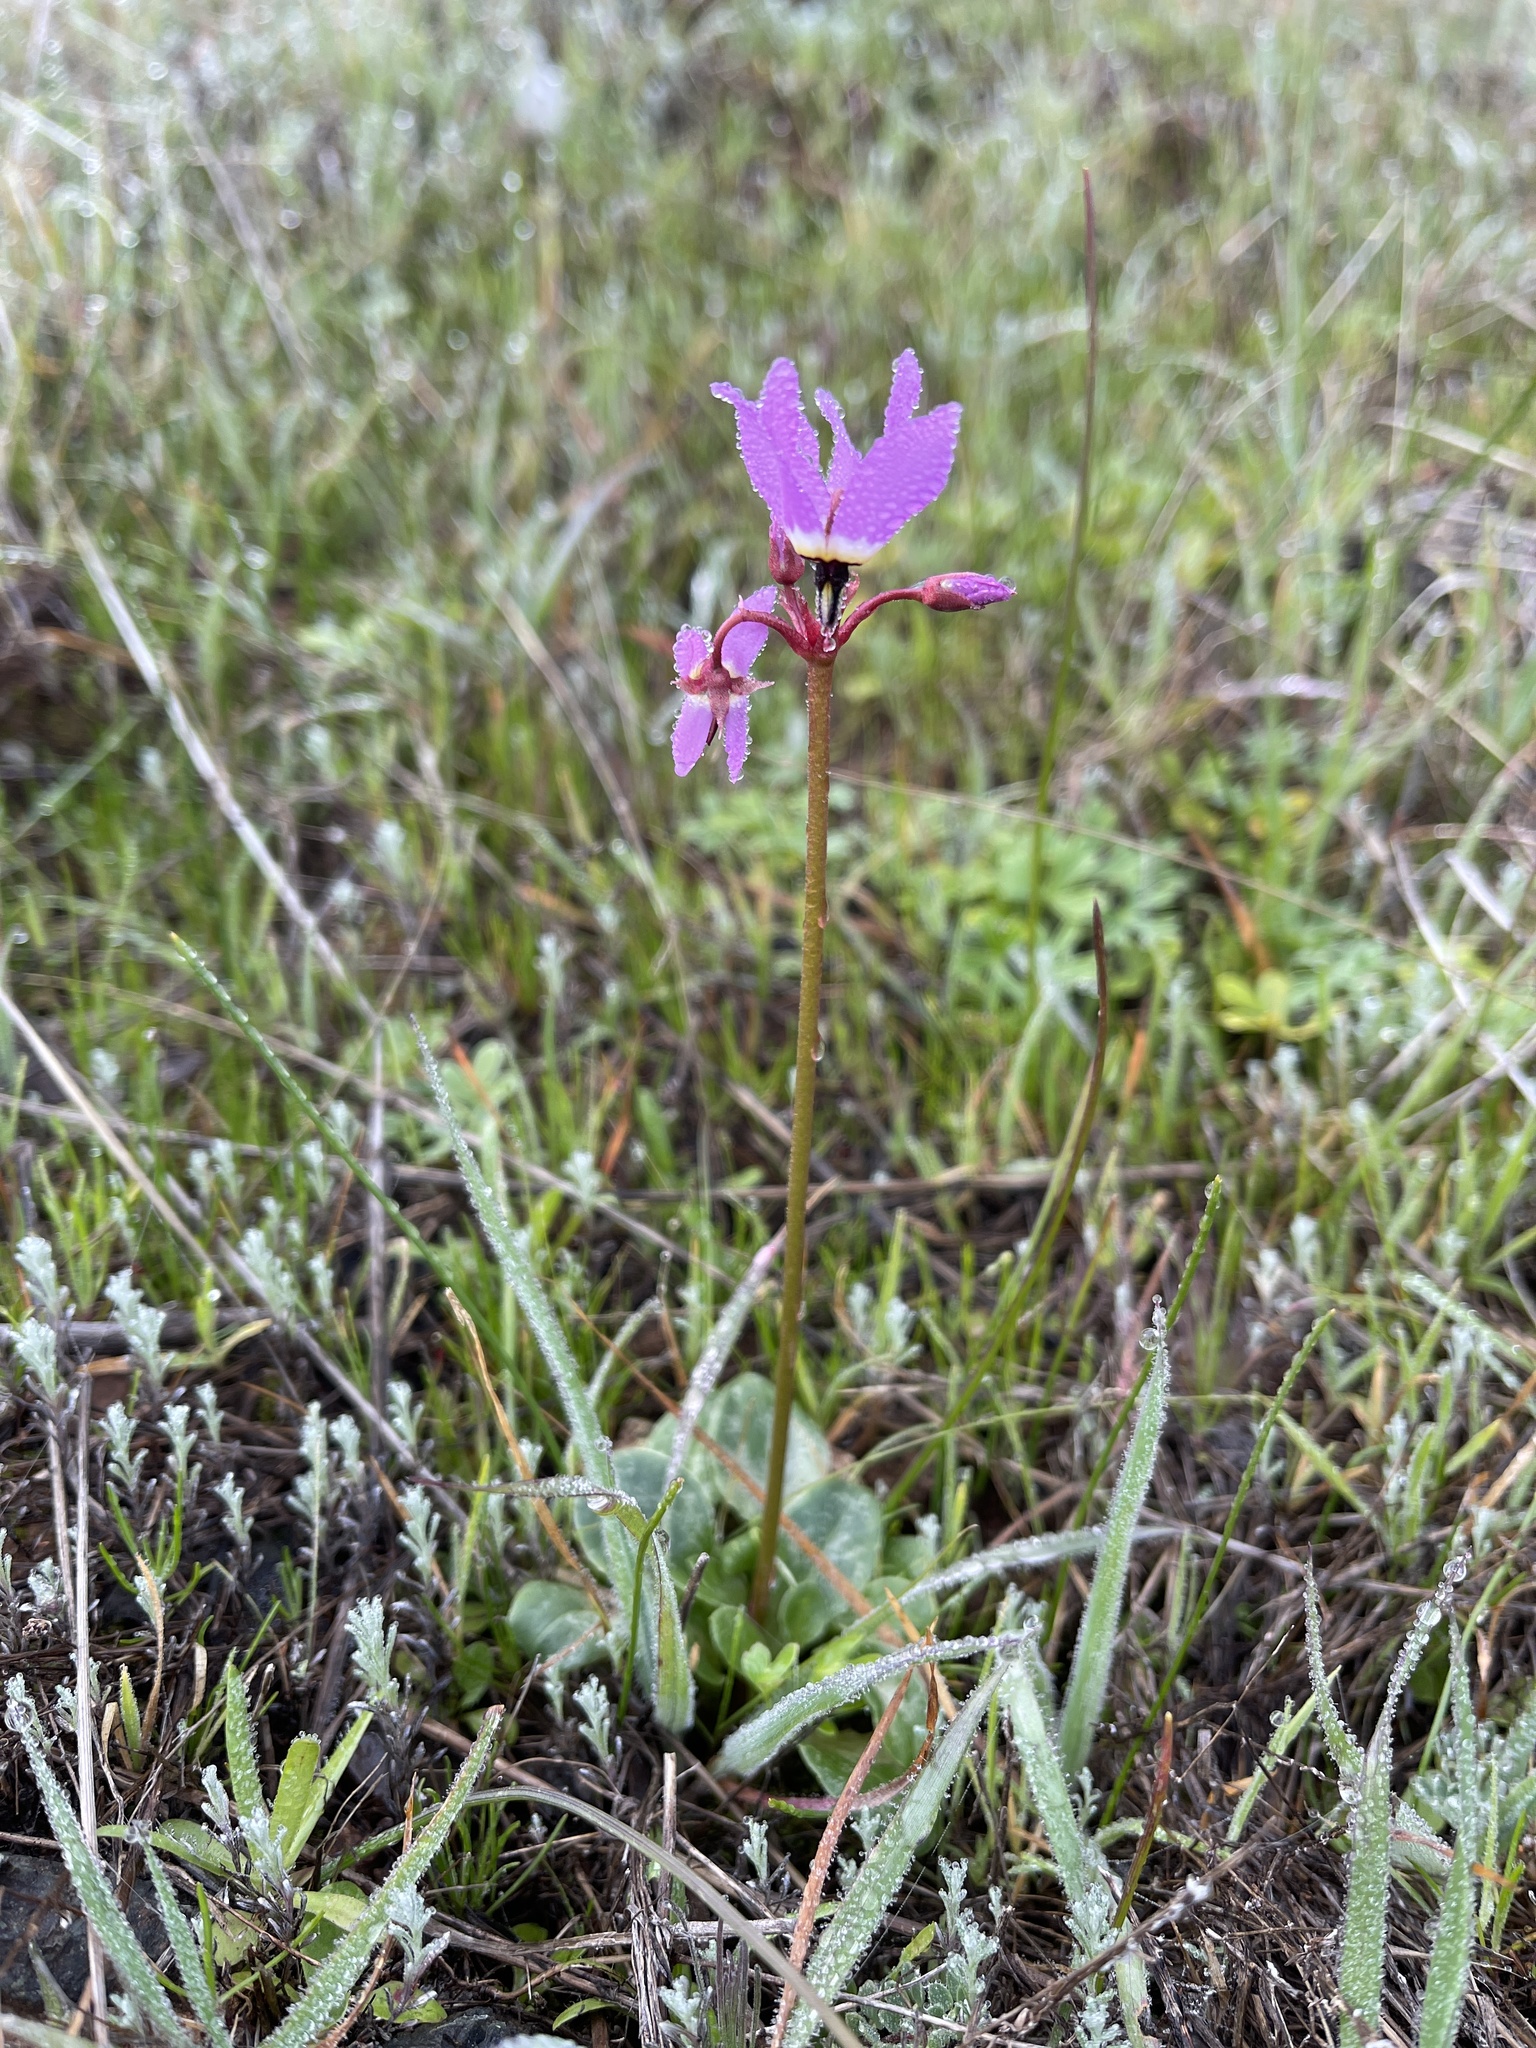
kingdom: Plantae
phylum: Tracheophyta
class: Magnoliopsida
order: Ericales
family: Primulaceae
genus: Dodecatheon
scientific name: Dodecatheon hendersonii
